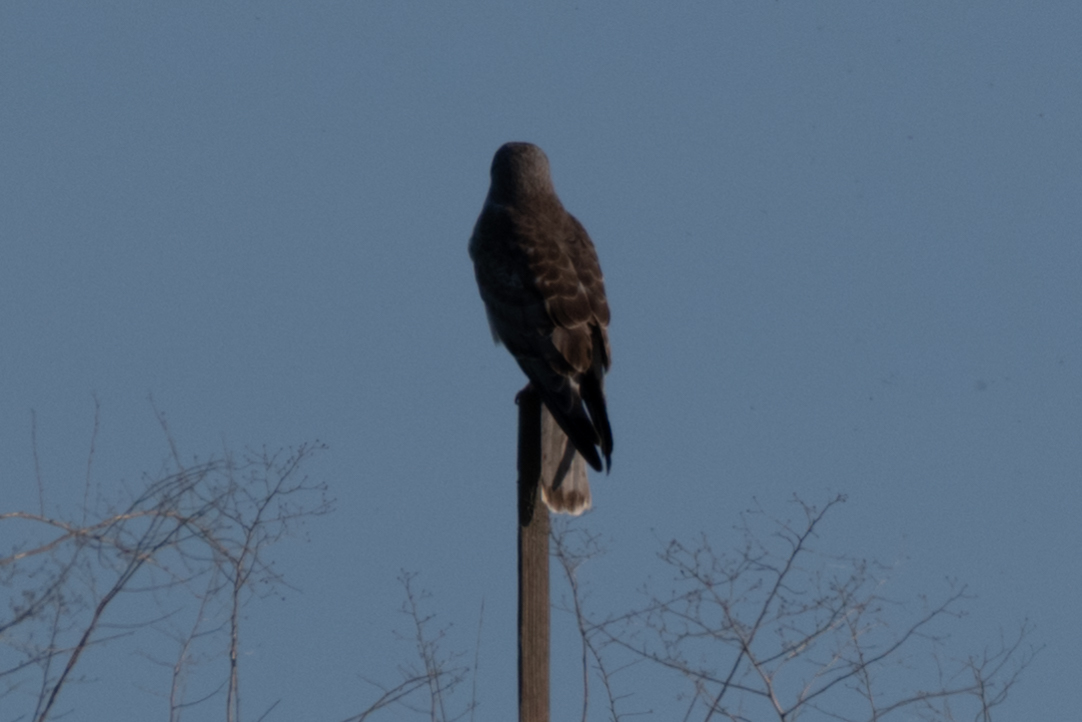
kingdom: Animalia
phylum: Chordata
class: Aves
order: Accipitriformes
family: Accipitridae
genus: Circus
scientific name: Circus cyaneus
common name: Hen harrier
